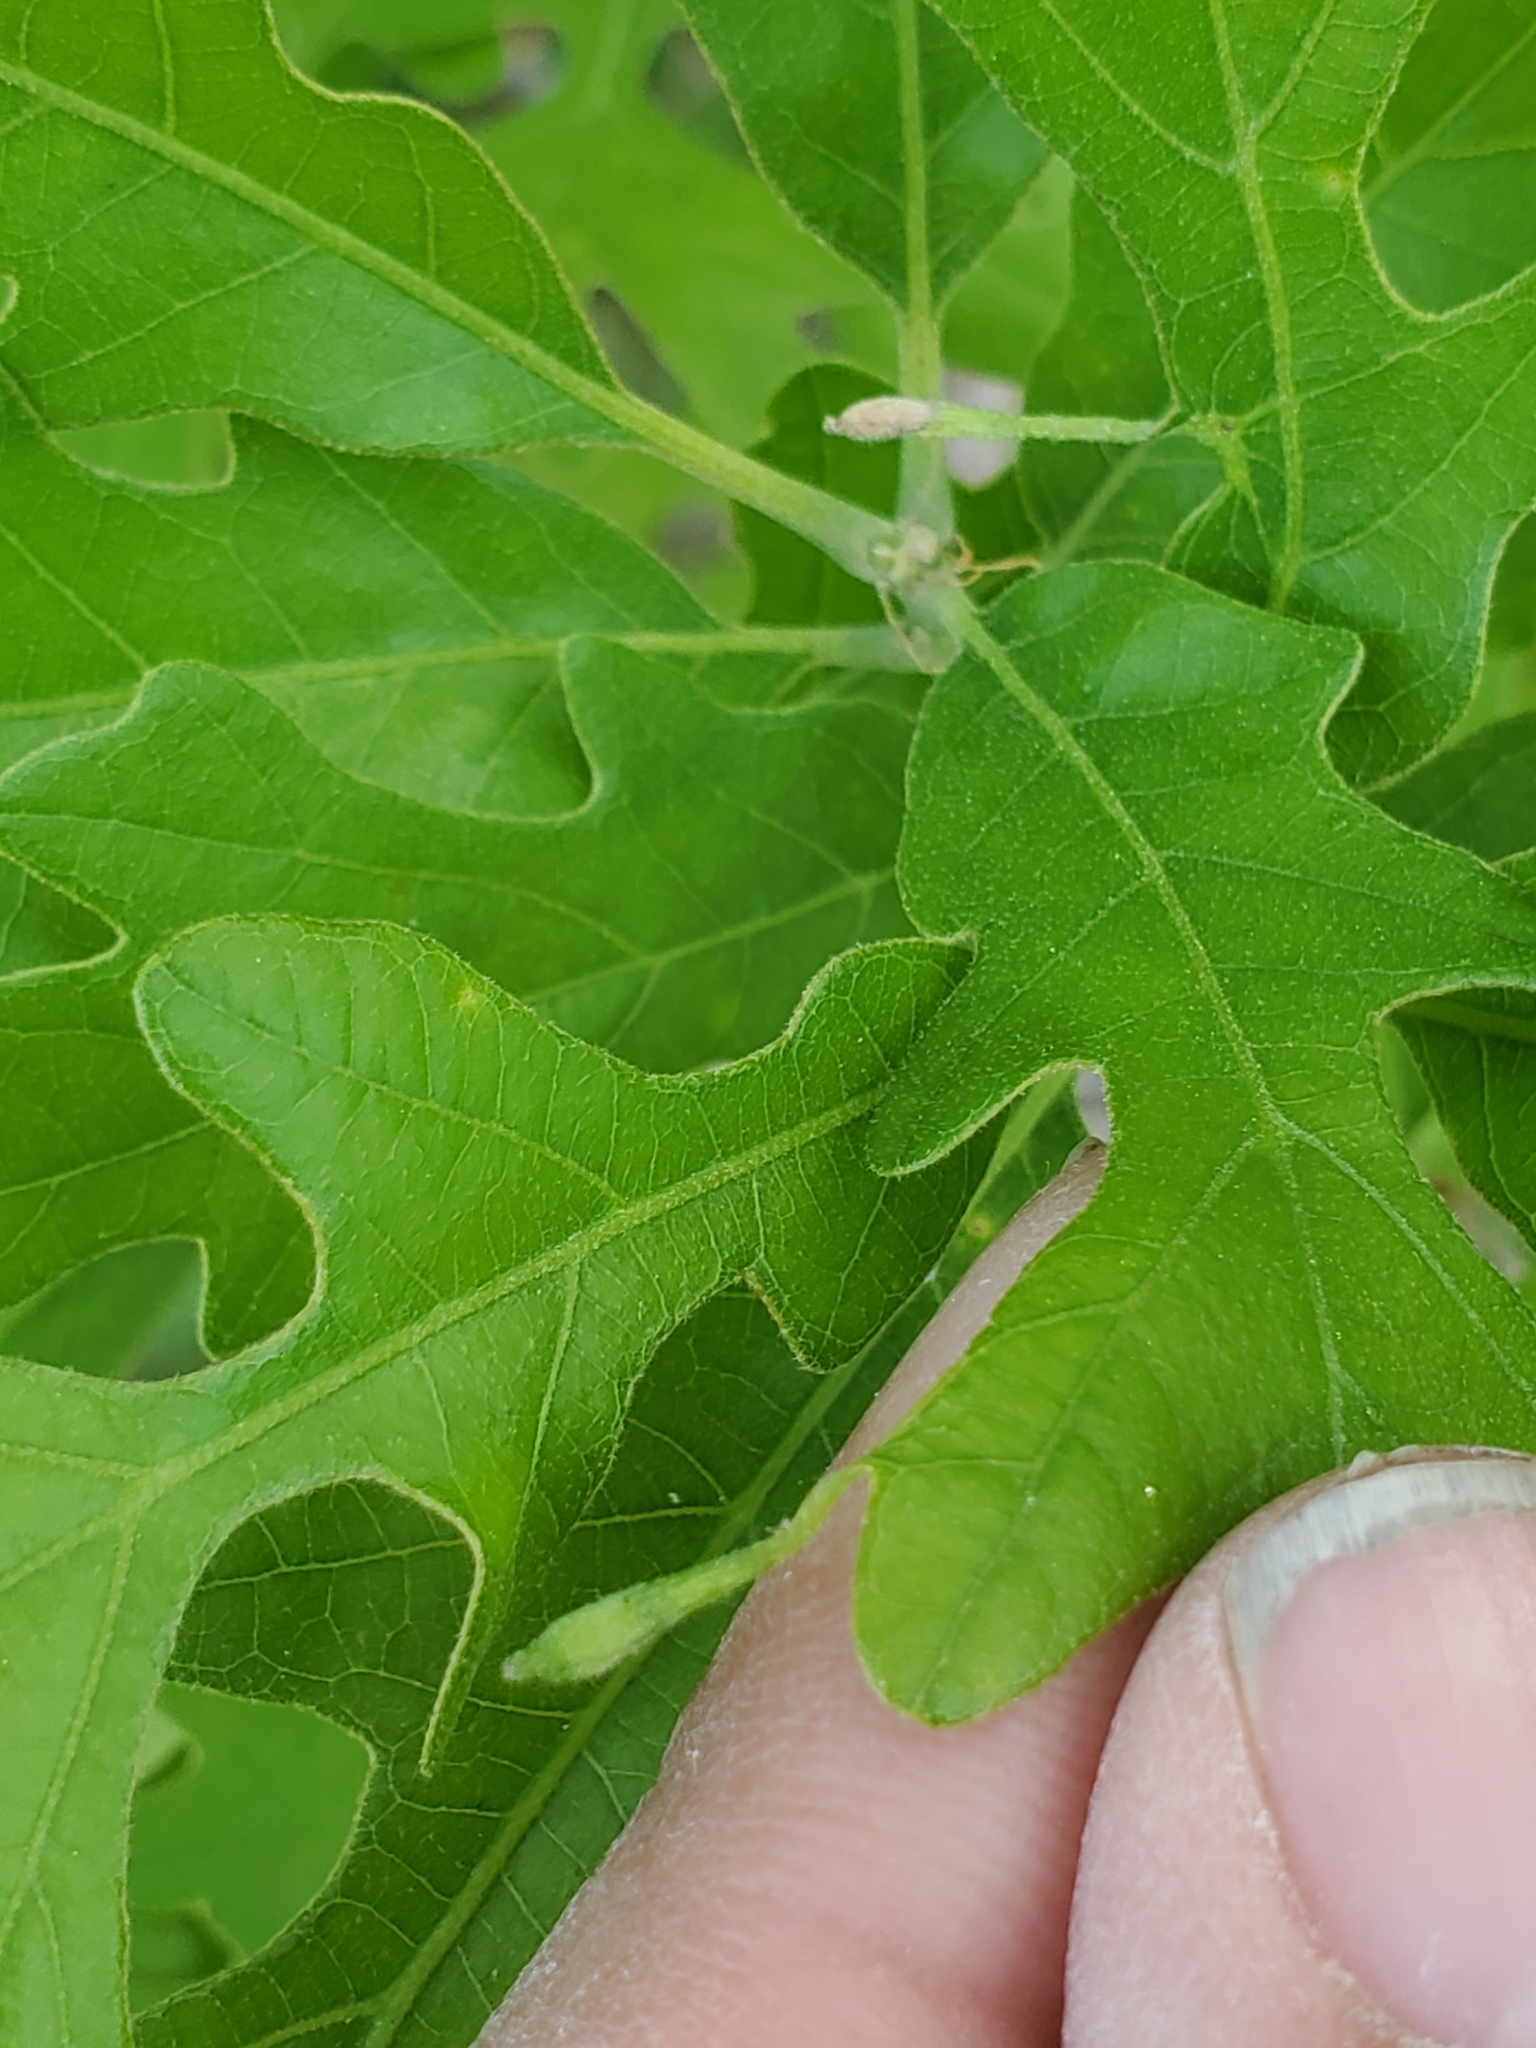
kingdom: Animalia
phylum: Arthropoda
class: Insecta
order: Hymenoptera
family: Cynipidae
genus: Andricus
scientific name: Andricus
